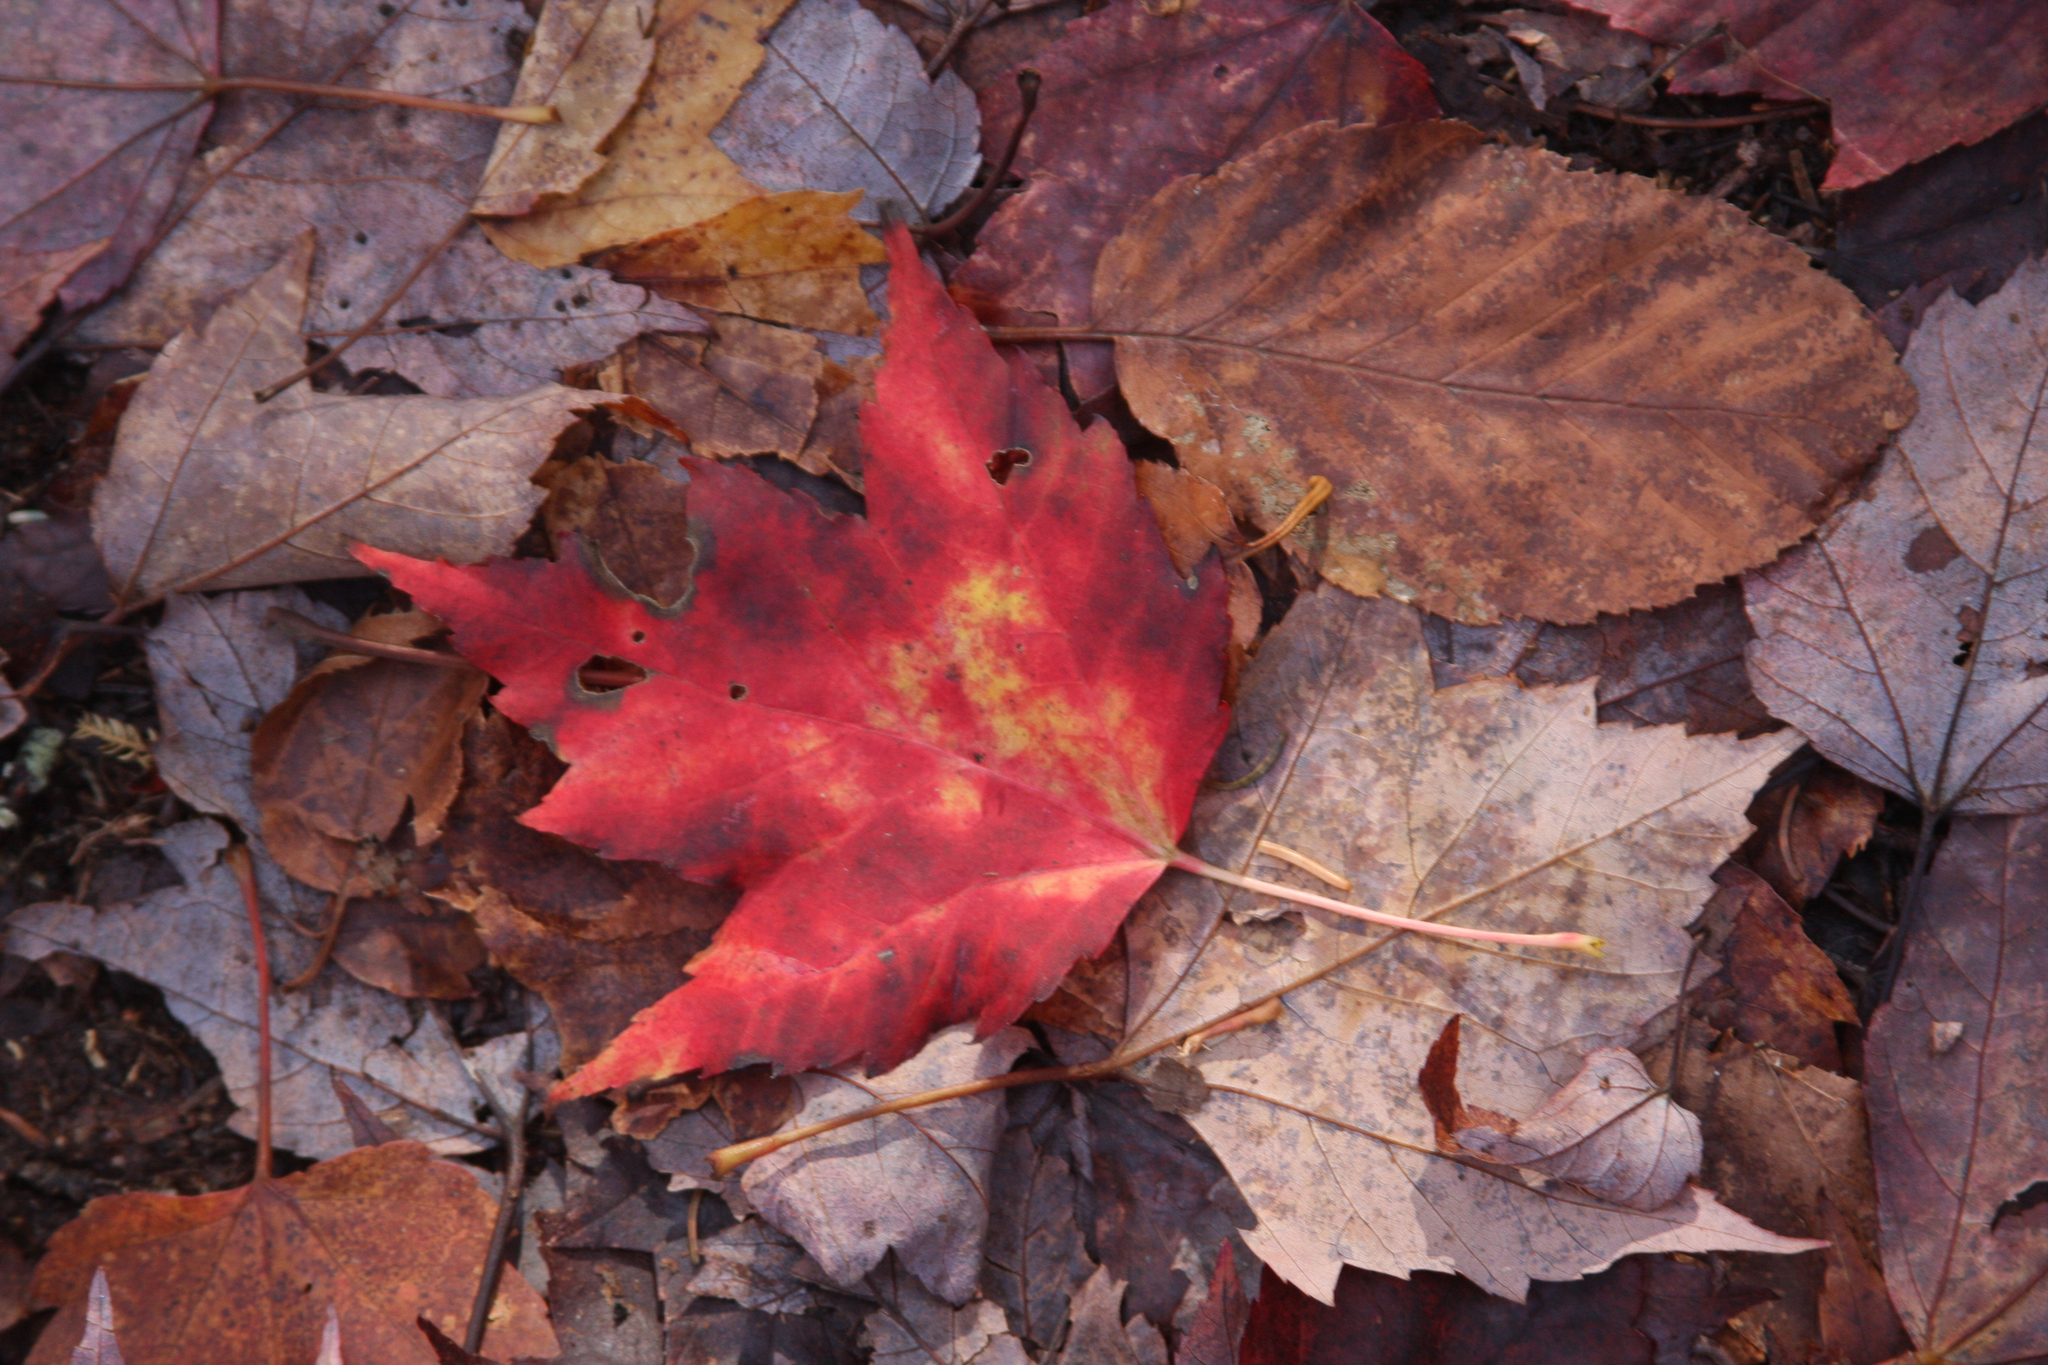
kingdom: Plantae
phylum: Tracheophyta
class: Magnoliopsida
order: Sapindales
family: Sapindaceae
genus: Acer
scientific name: Acer rubrum
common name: Red maple
